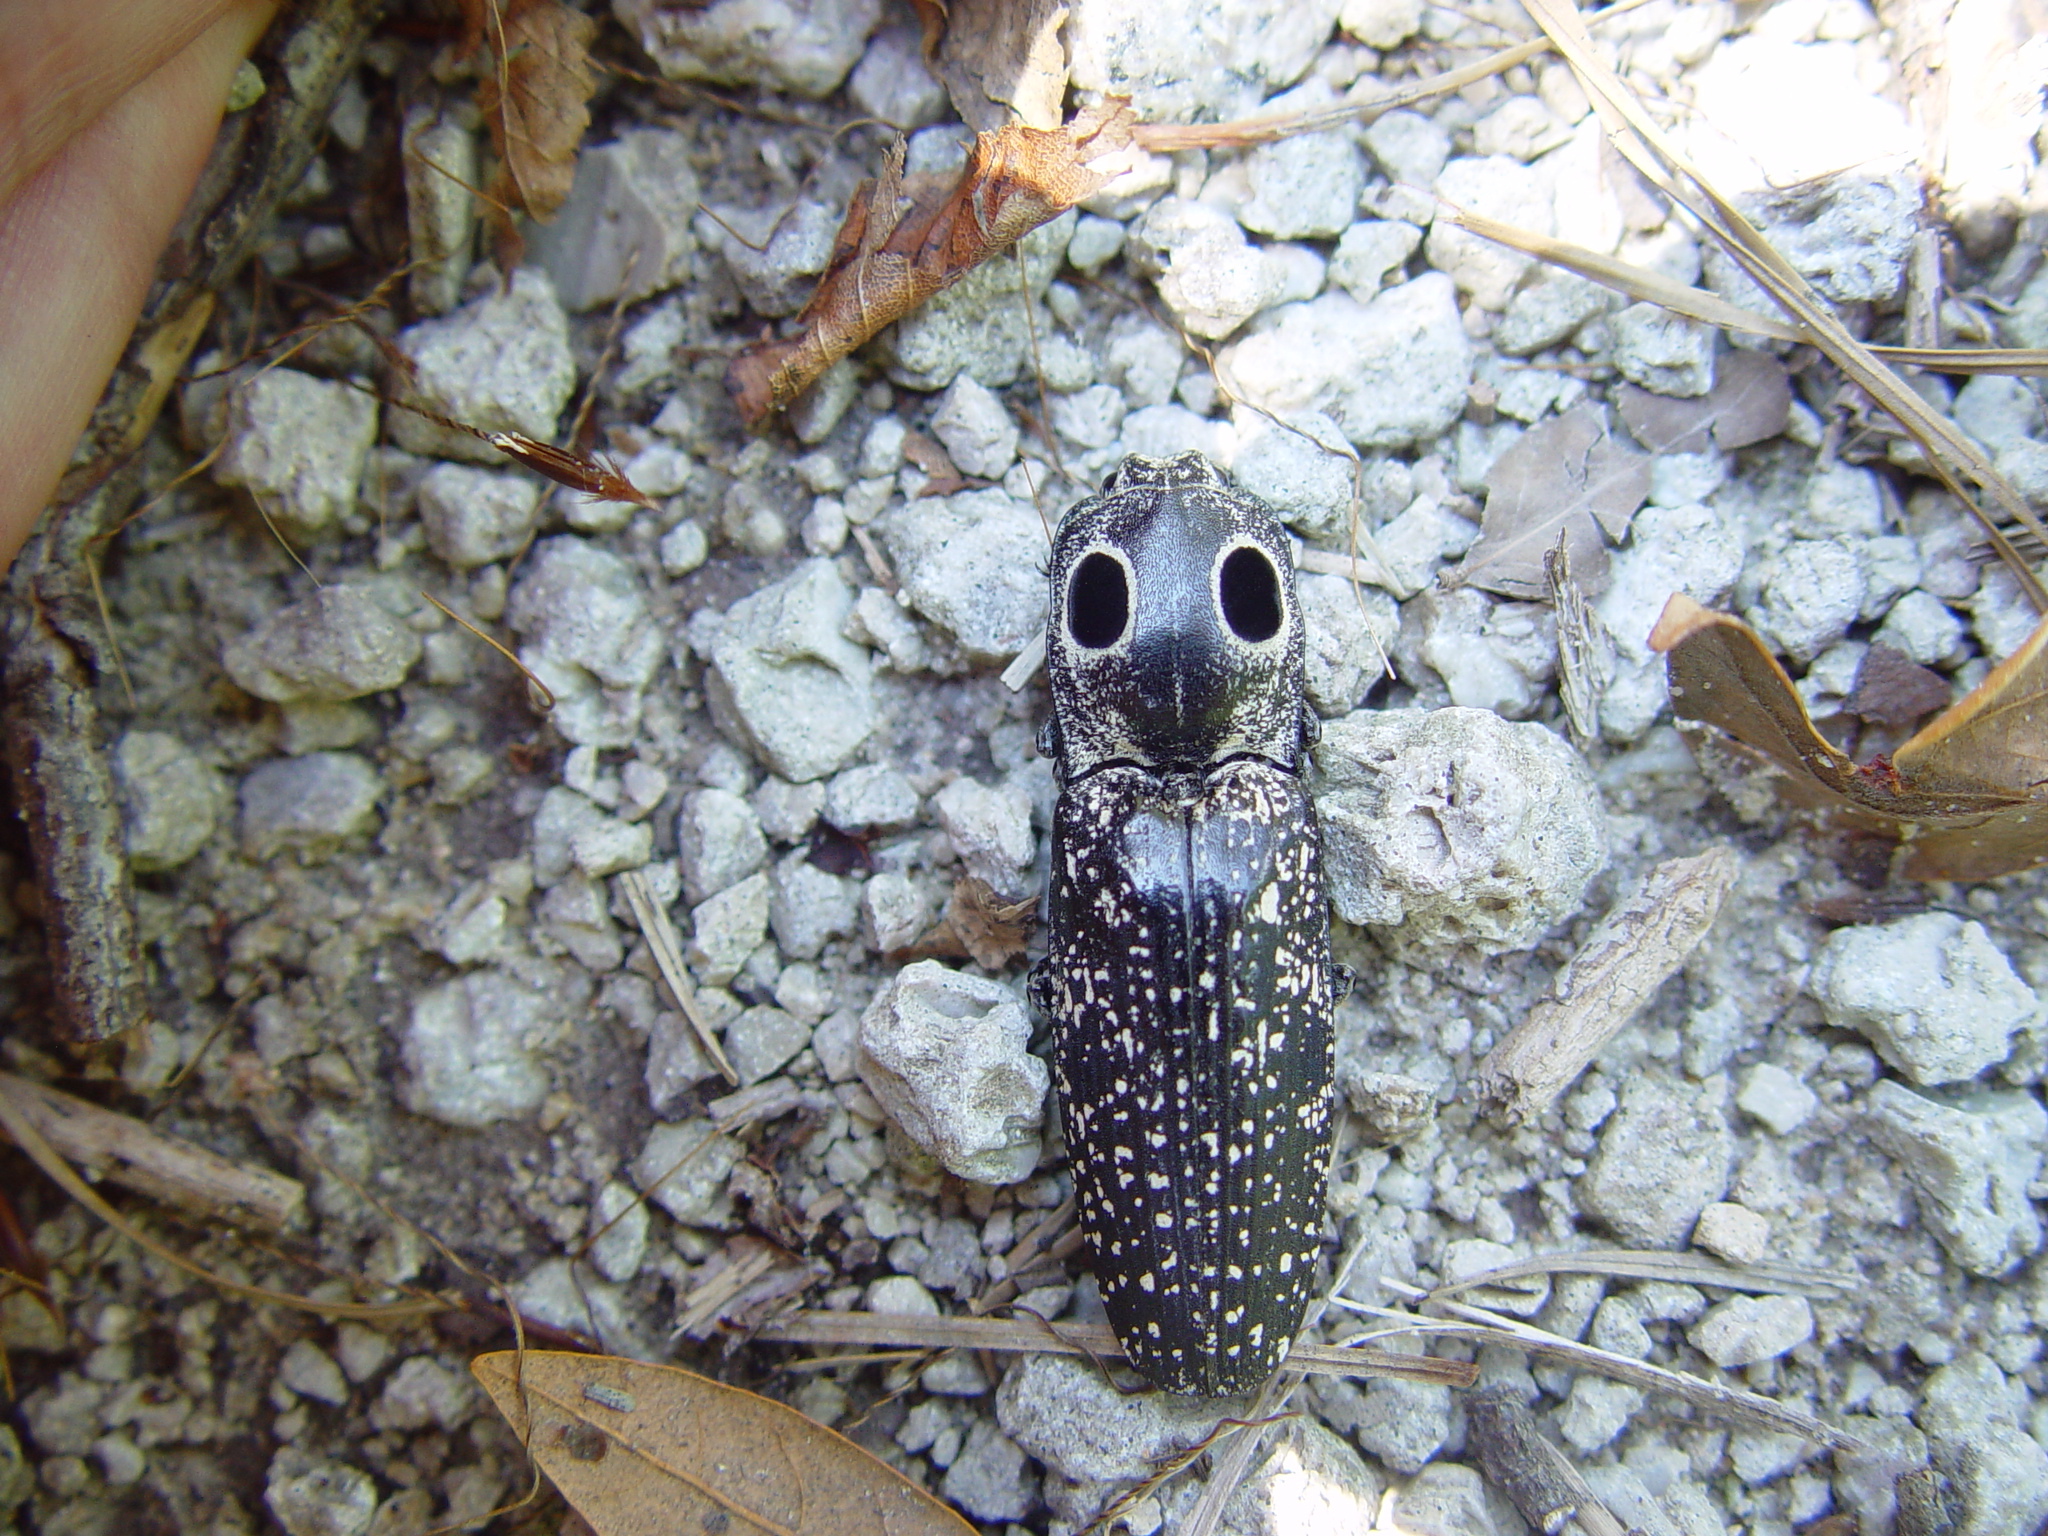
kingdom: Animalia
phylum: Arthropoda
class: Insecta
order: Coleoptera
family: Elateridae
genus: Alaus
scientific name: Alaus oculatus
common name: Eastern eyed click beetle
